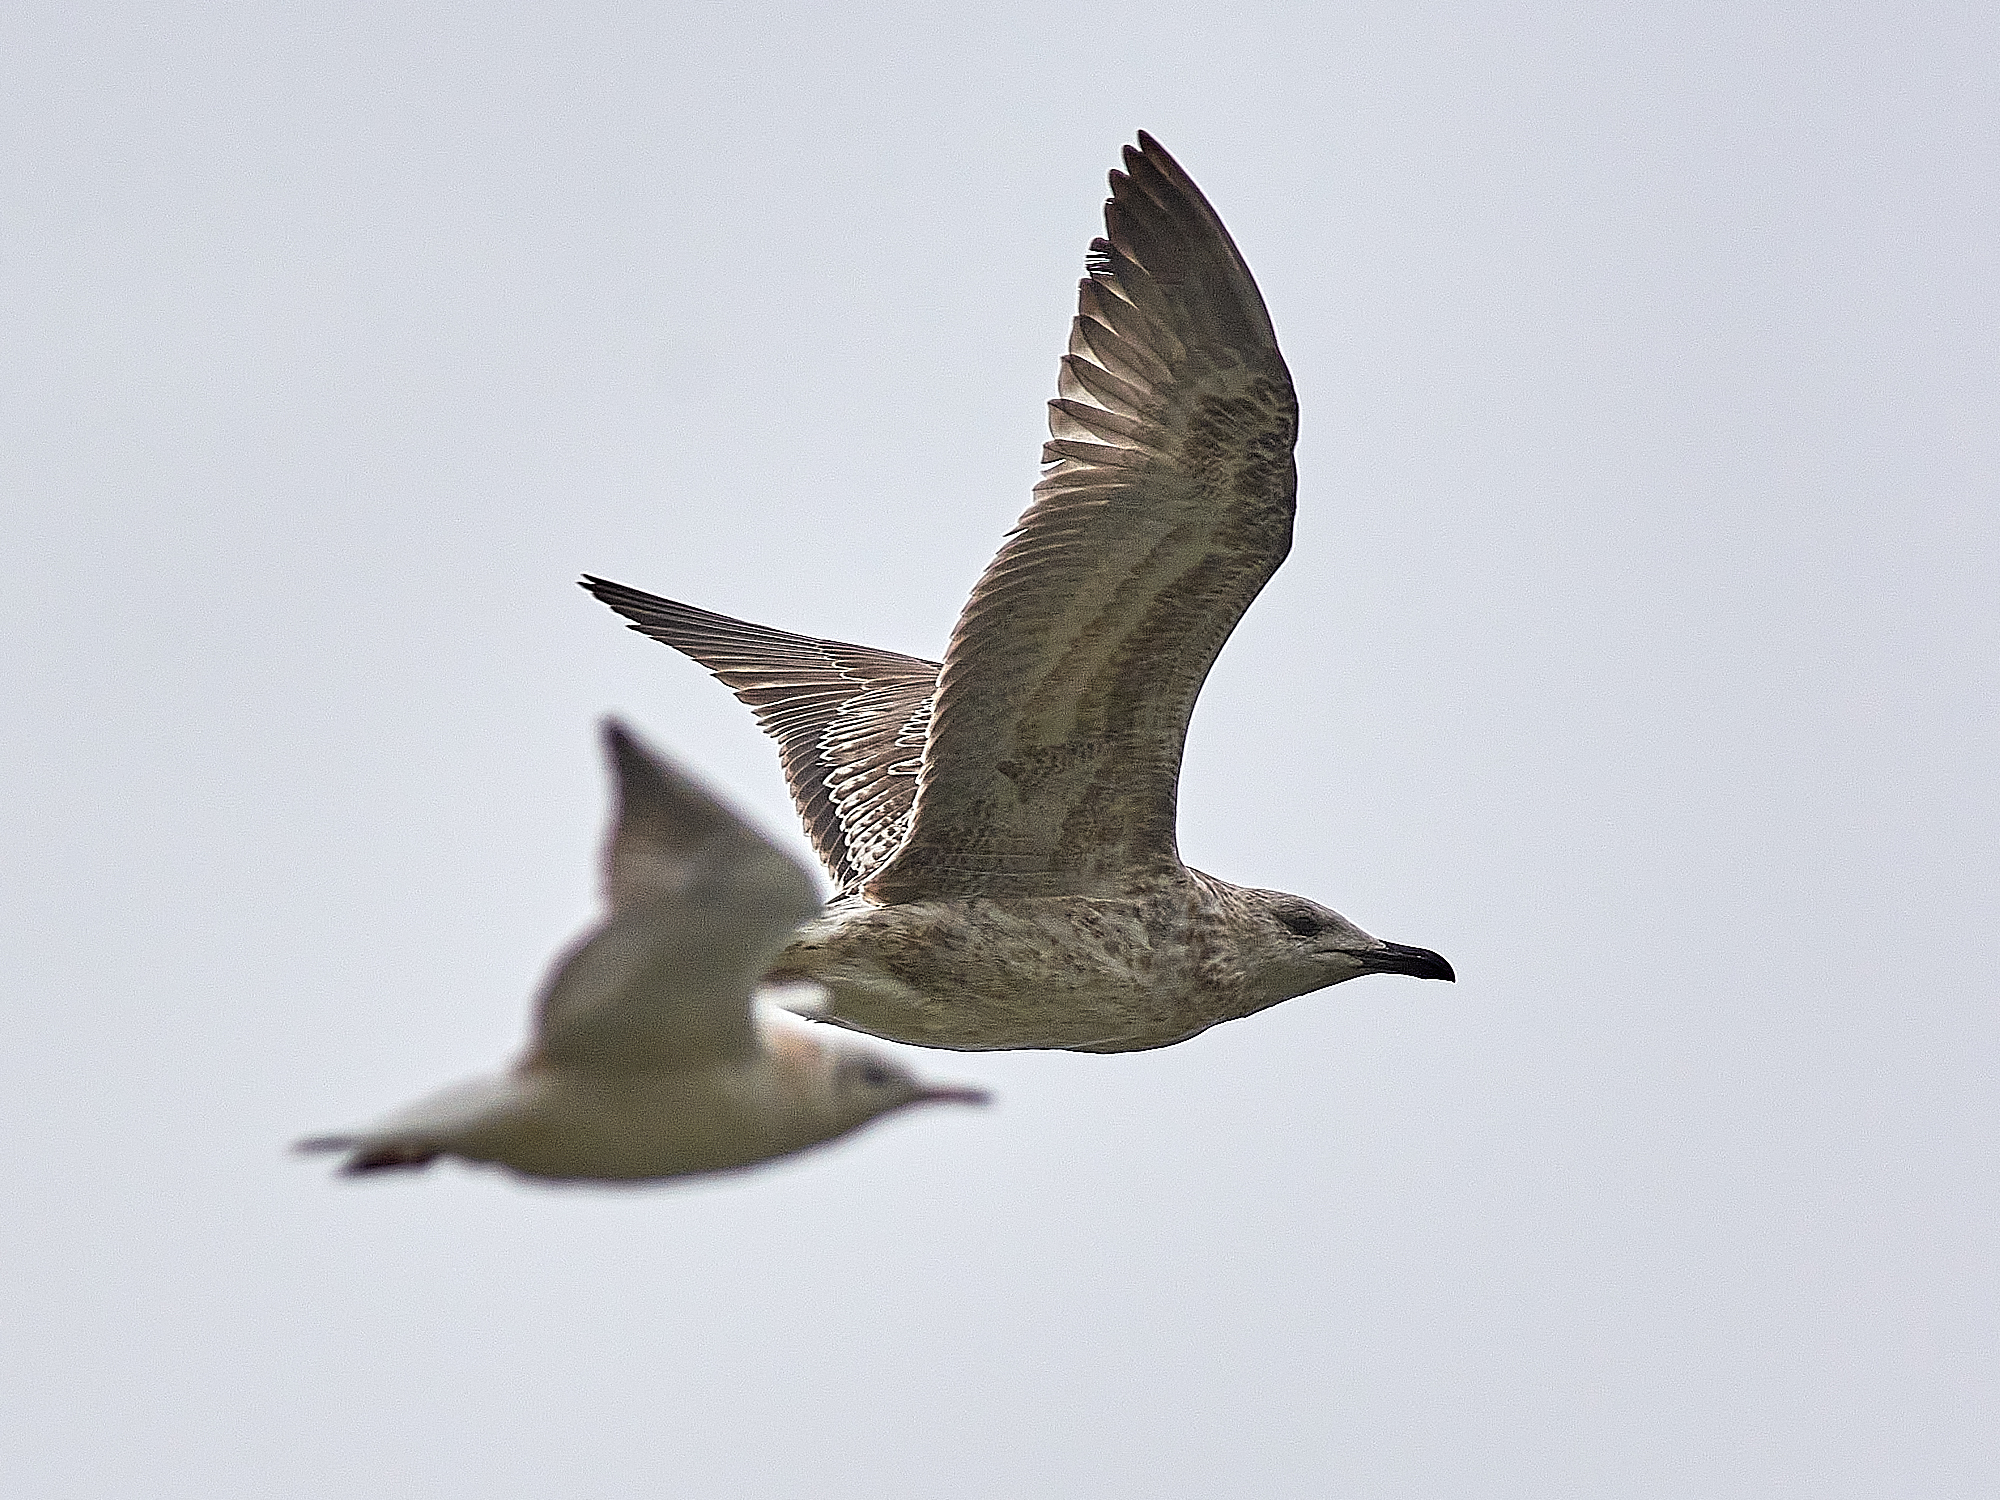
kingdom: Animalia
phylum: Chordata
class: Aves
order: Charadriiformes
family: Laridae
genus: Larus
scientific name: Larus cachinnans
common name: Caspian gull
